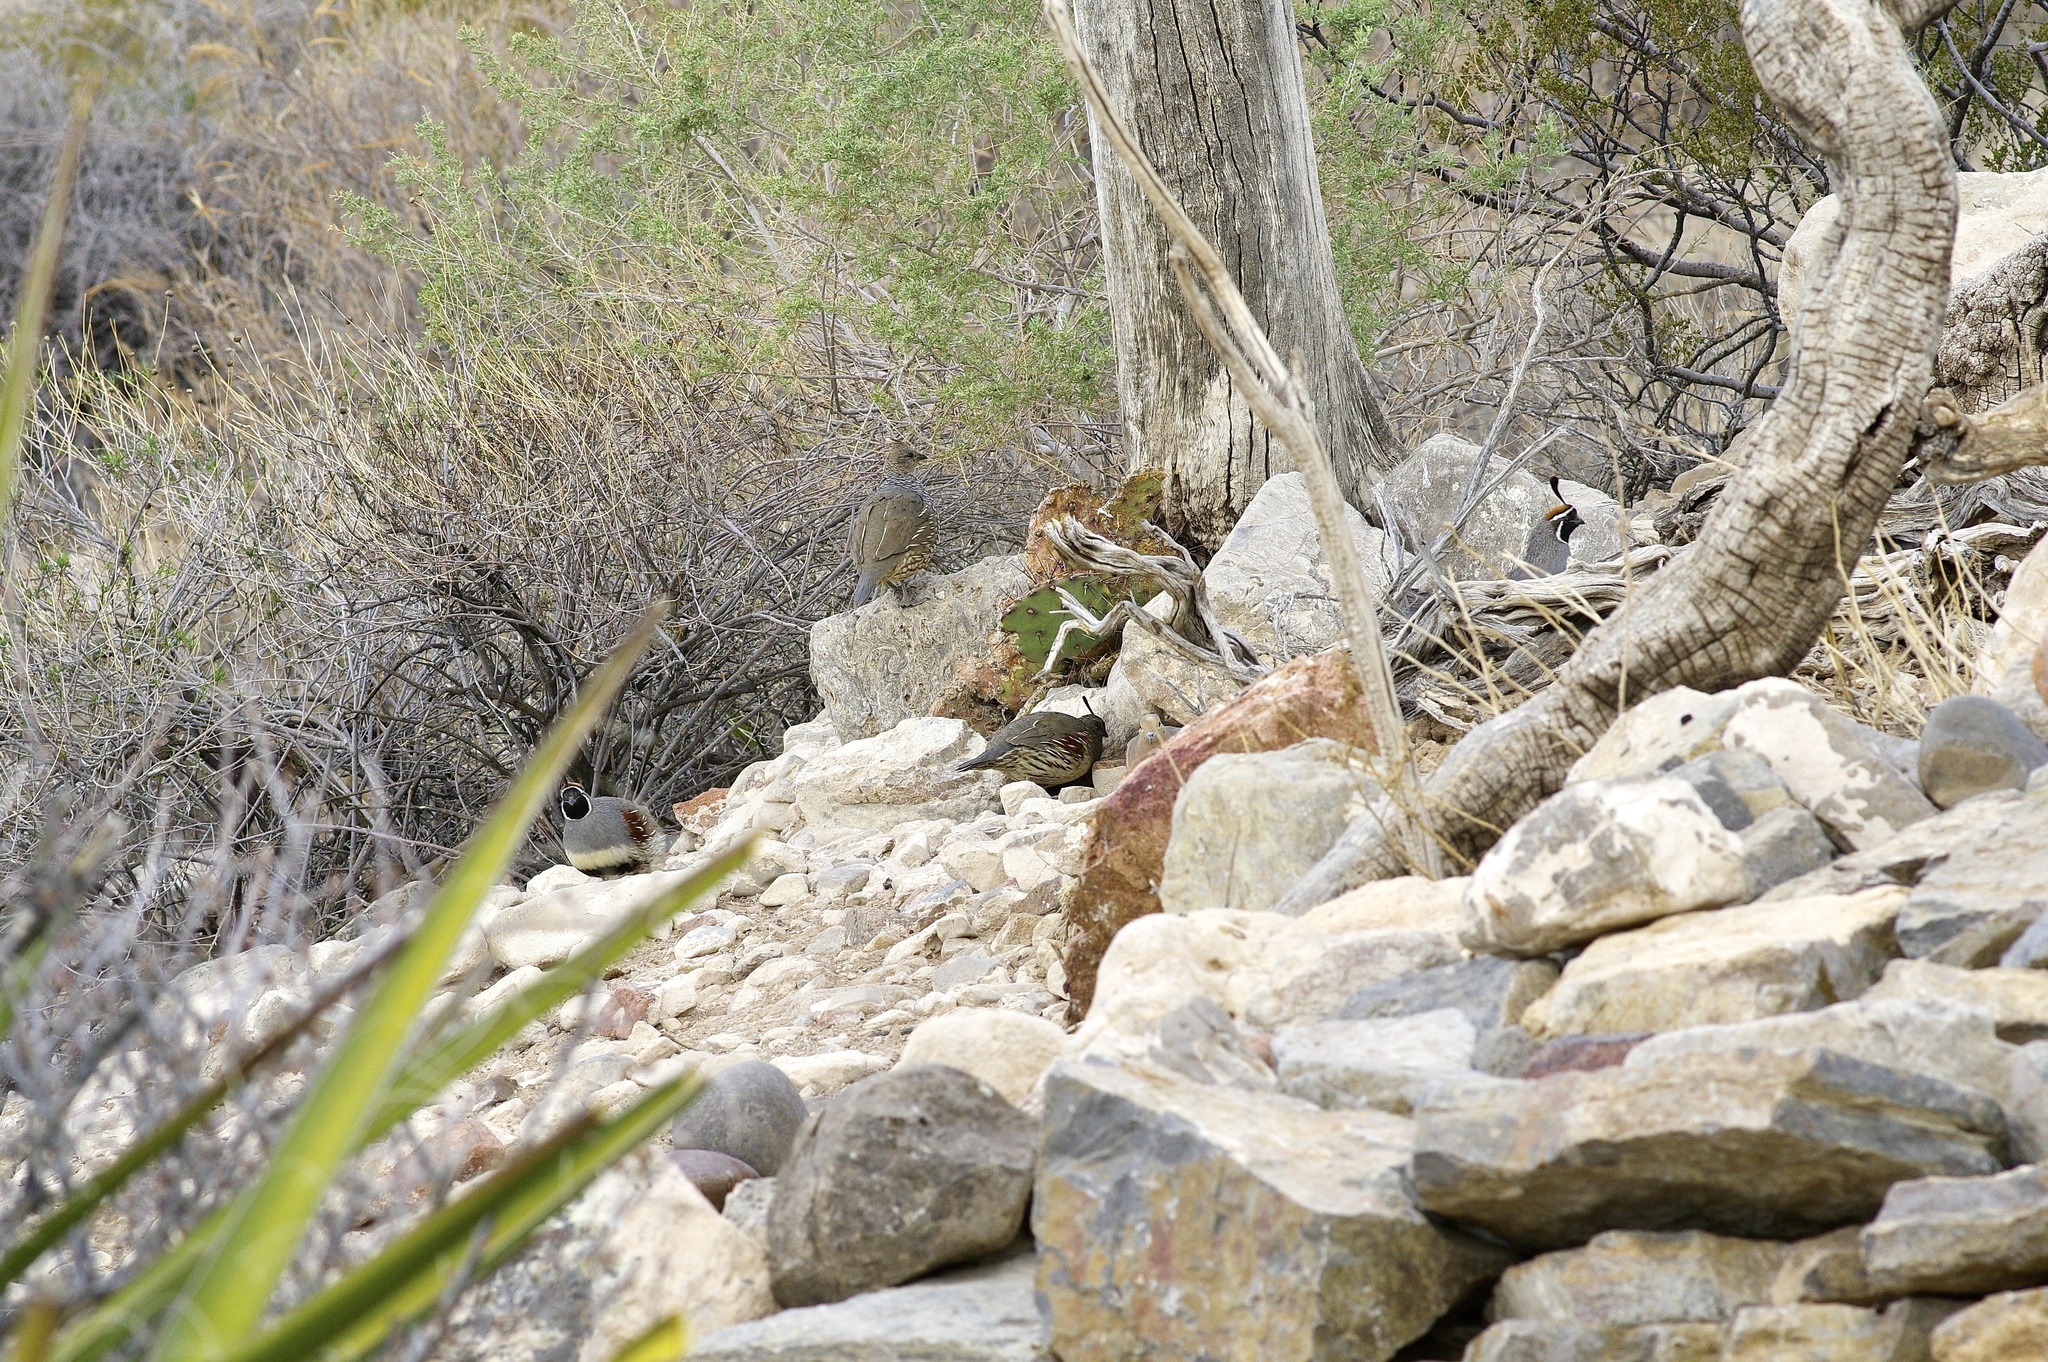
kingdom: Animalia
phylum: Chordata
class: Aves
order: Galliformes
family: Odontophoridae
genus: Callipepla
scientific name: Callipepla gambelii
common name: Gambel's quail
